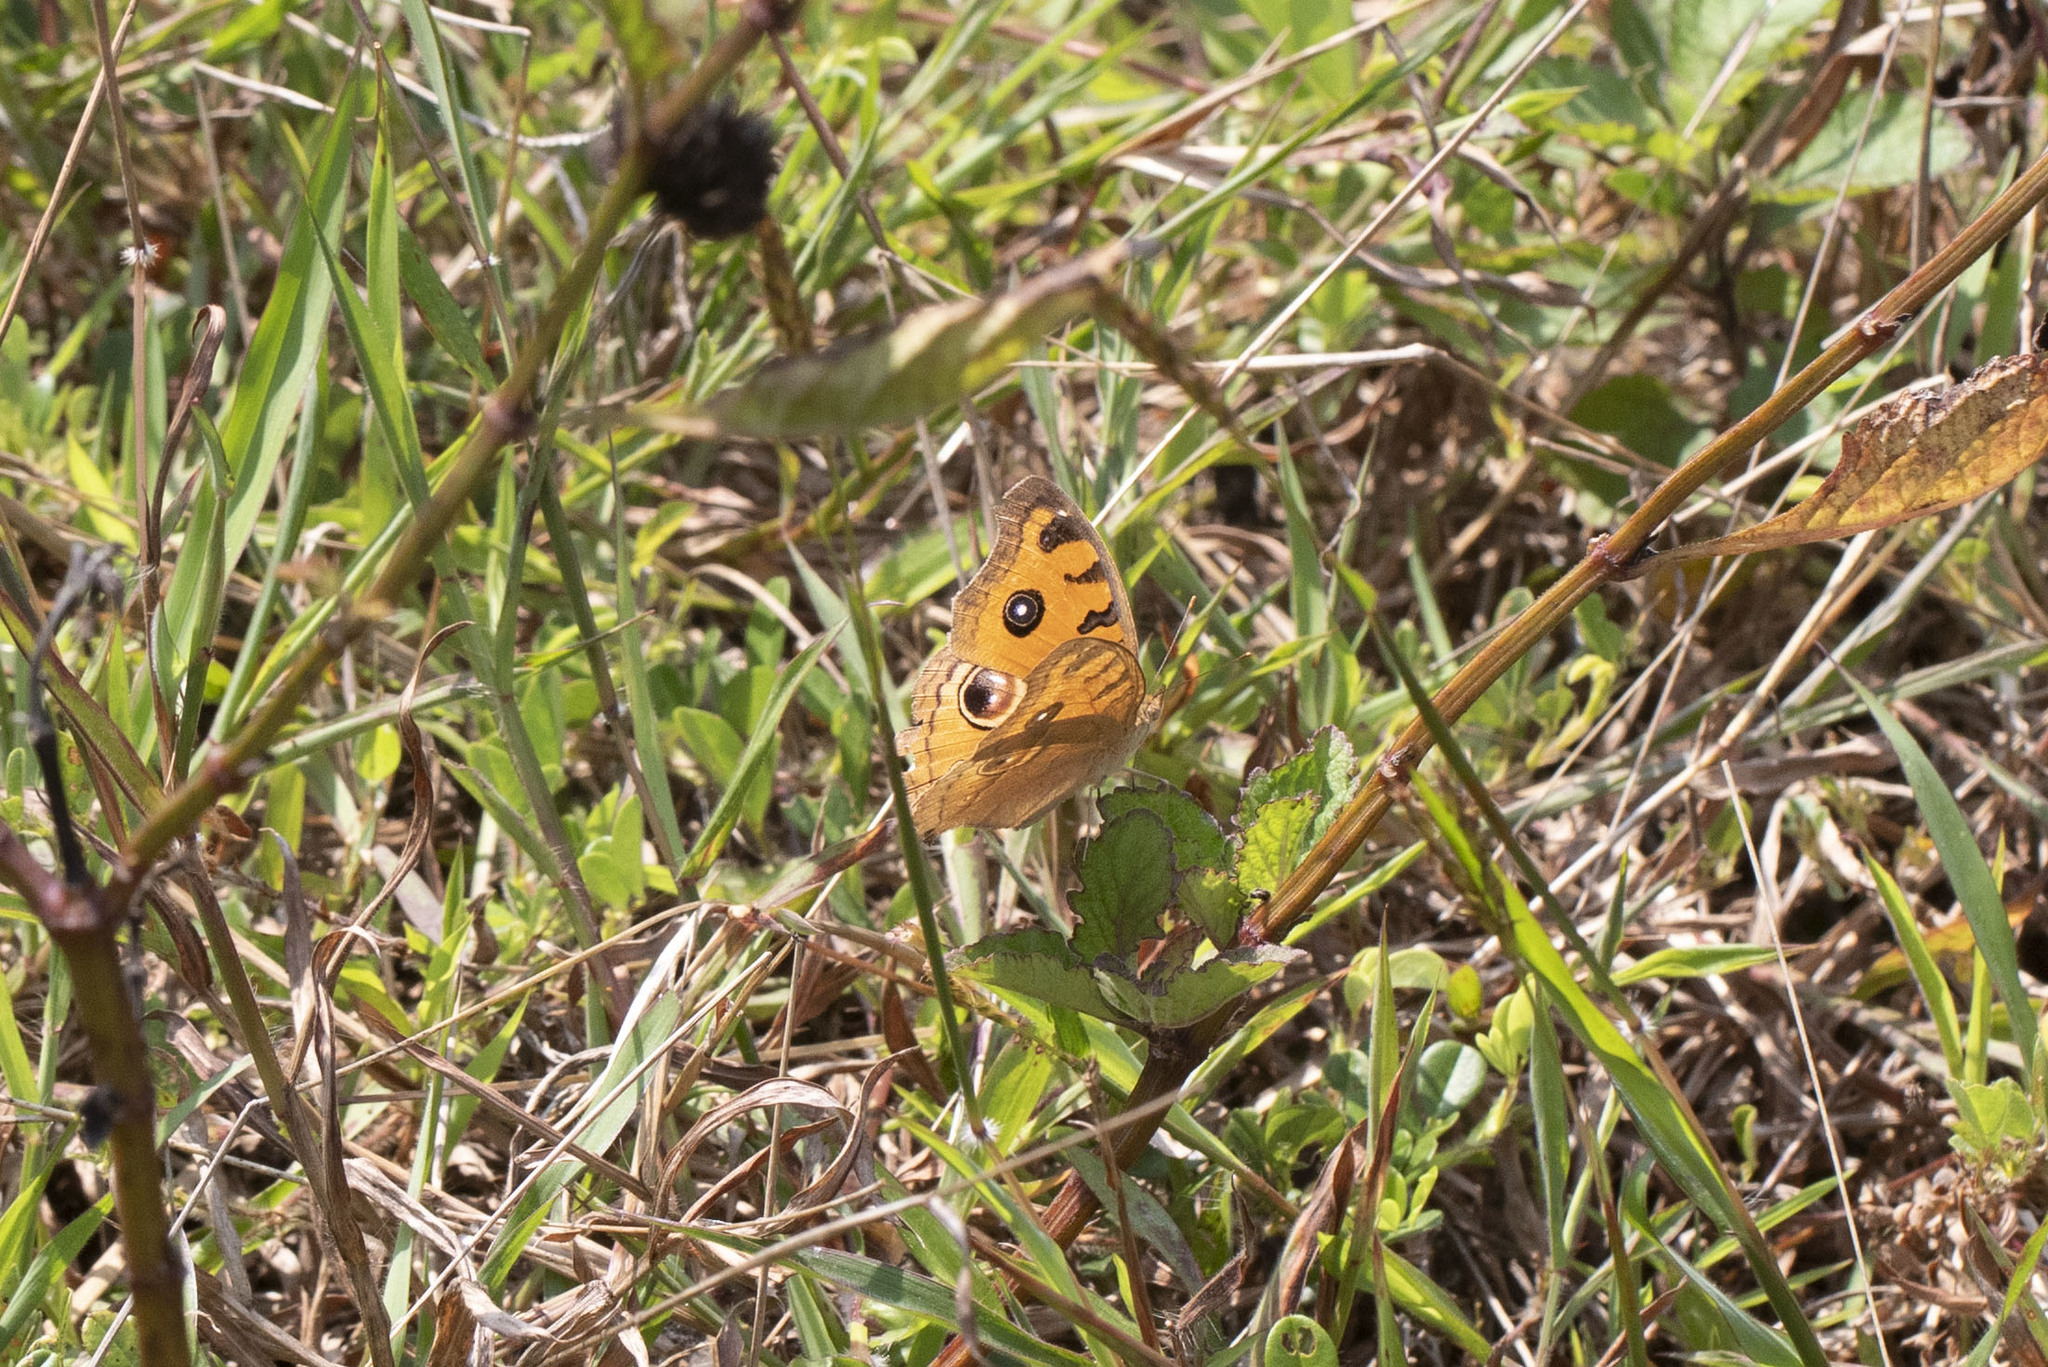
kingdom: Animalia
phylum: Arthropoda
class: Insecta
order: Lepidoptera
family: Nymphalidae
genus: Junonia
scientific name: Junonia almana
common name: Peacock pansy
